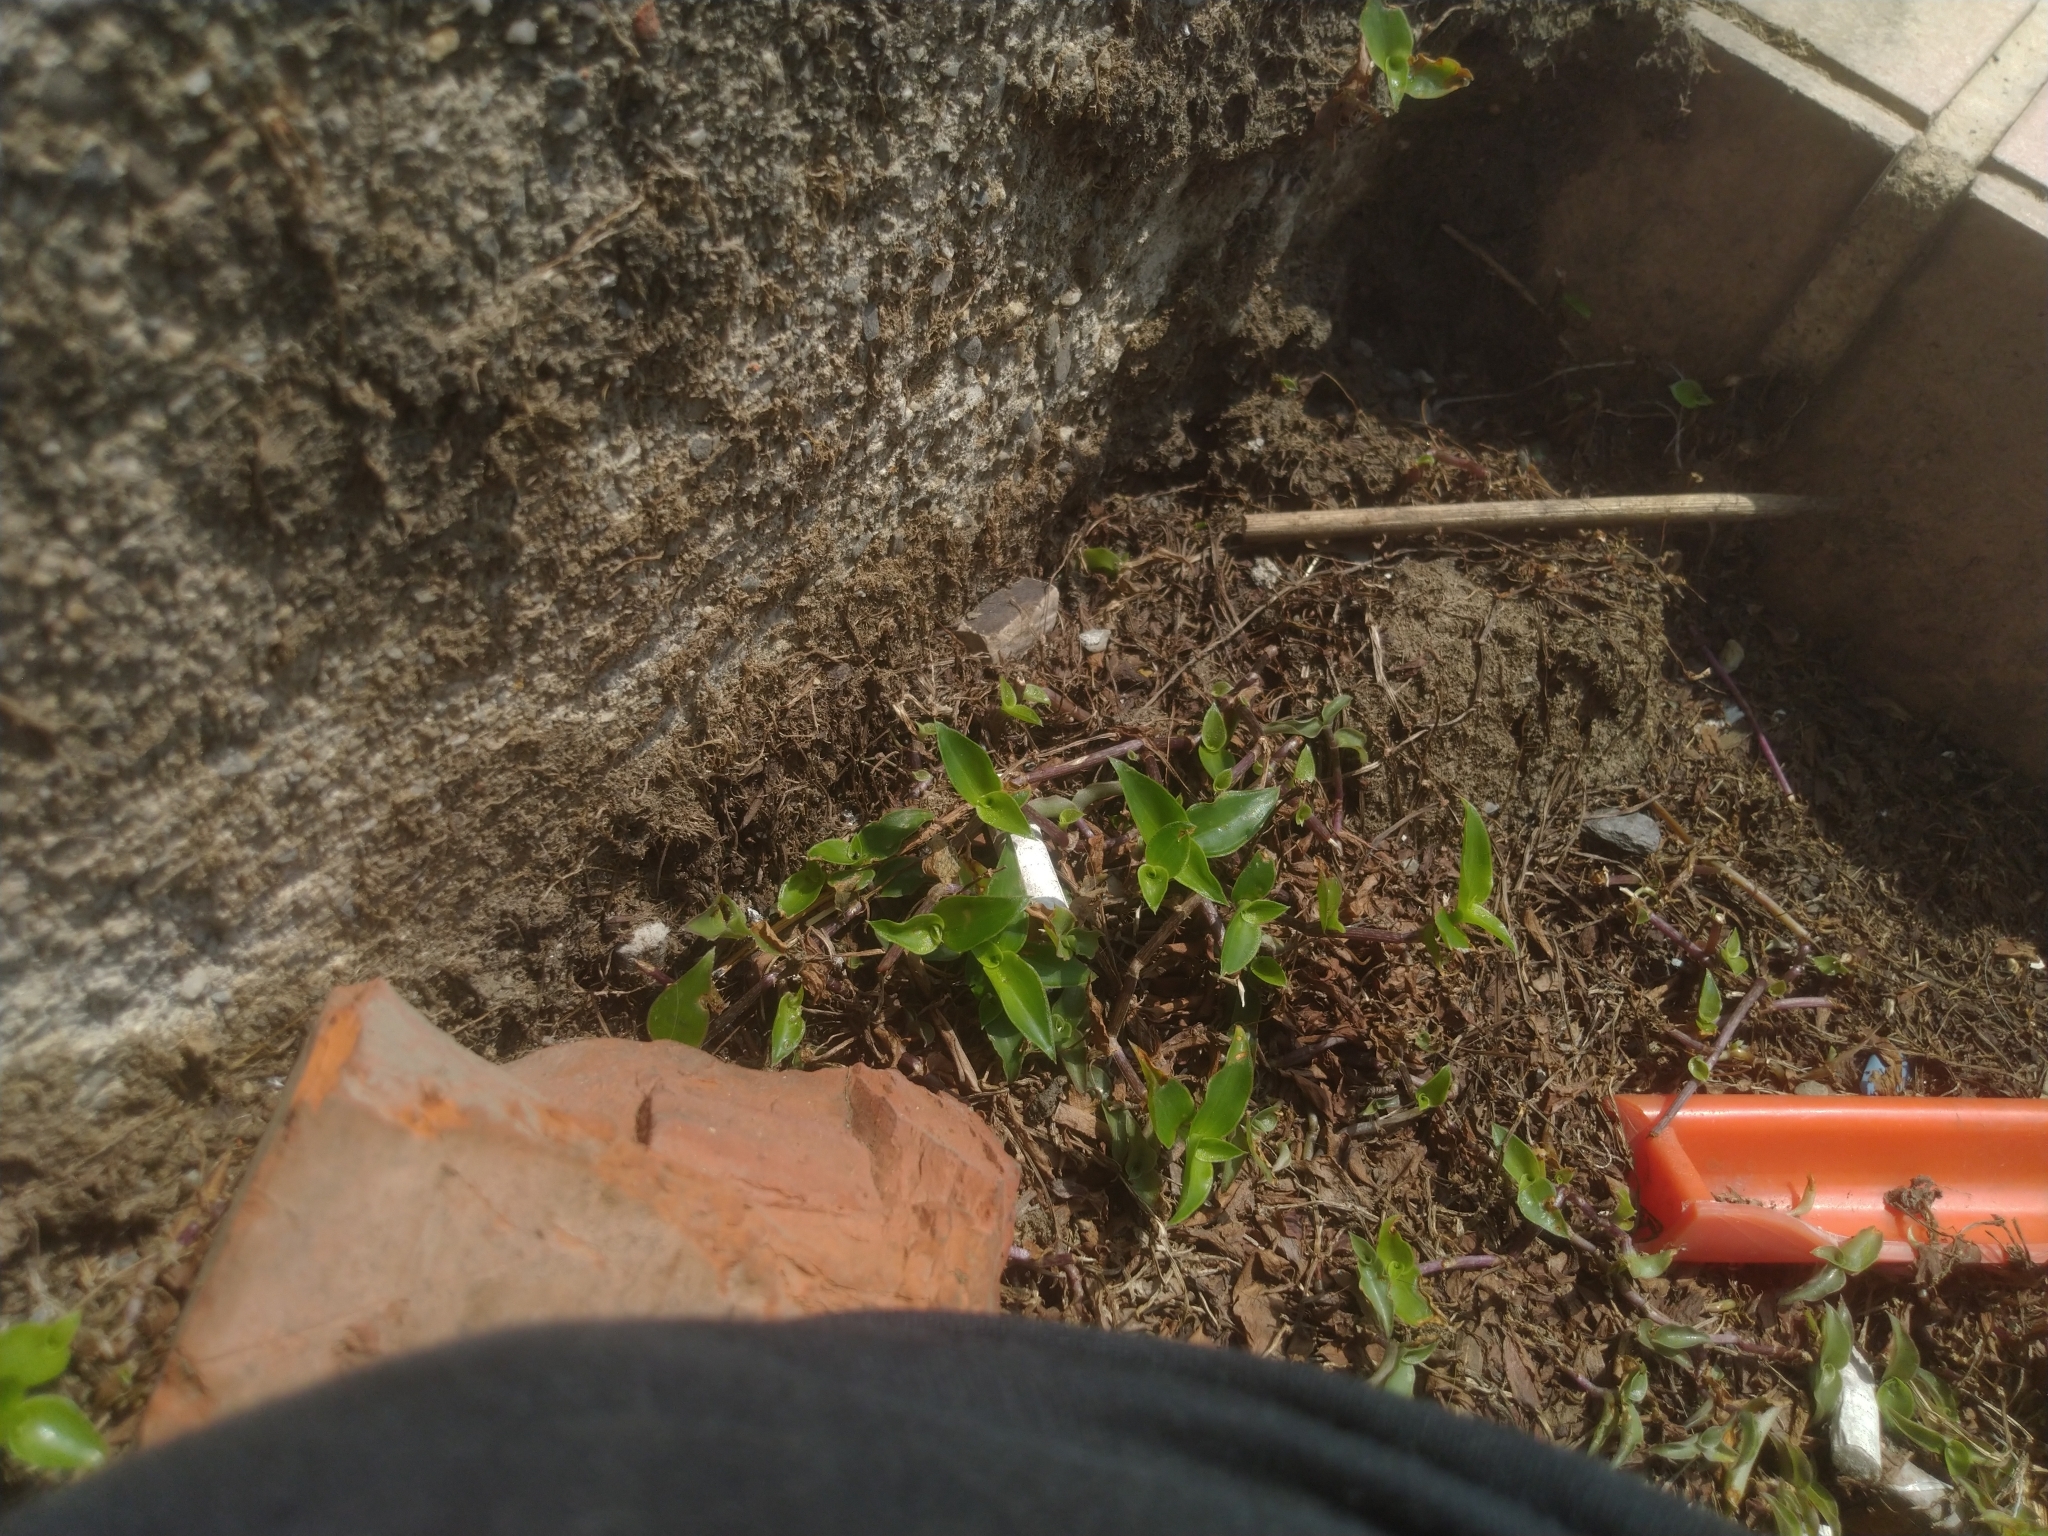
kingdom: Plantae
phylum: Tracheophyta
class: Liliopsida
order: Commelinales
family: Commelinaceae
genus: Callisia
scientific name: Callisia repens
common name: Creeping inchplant
